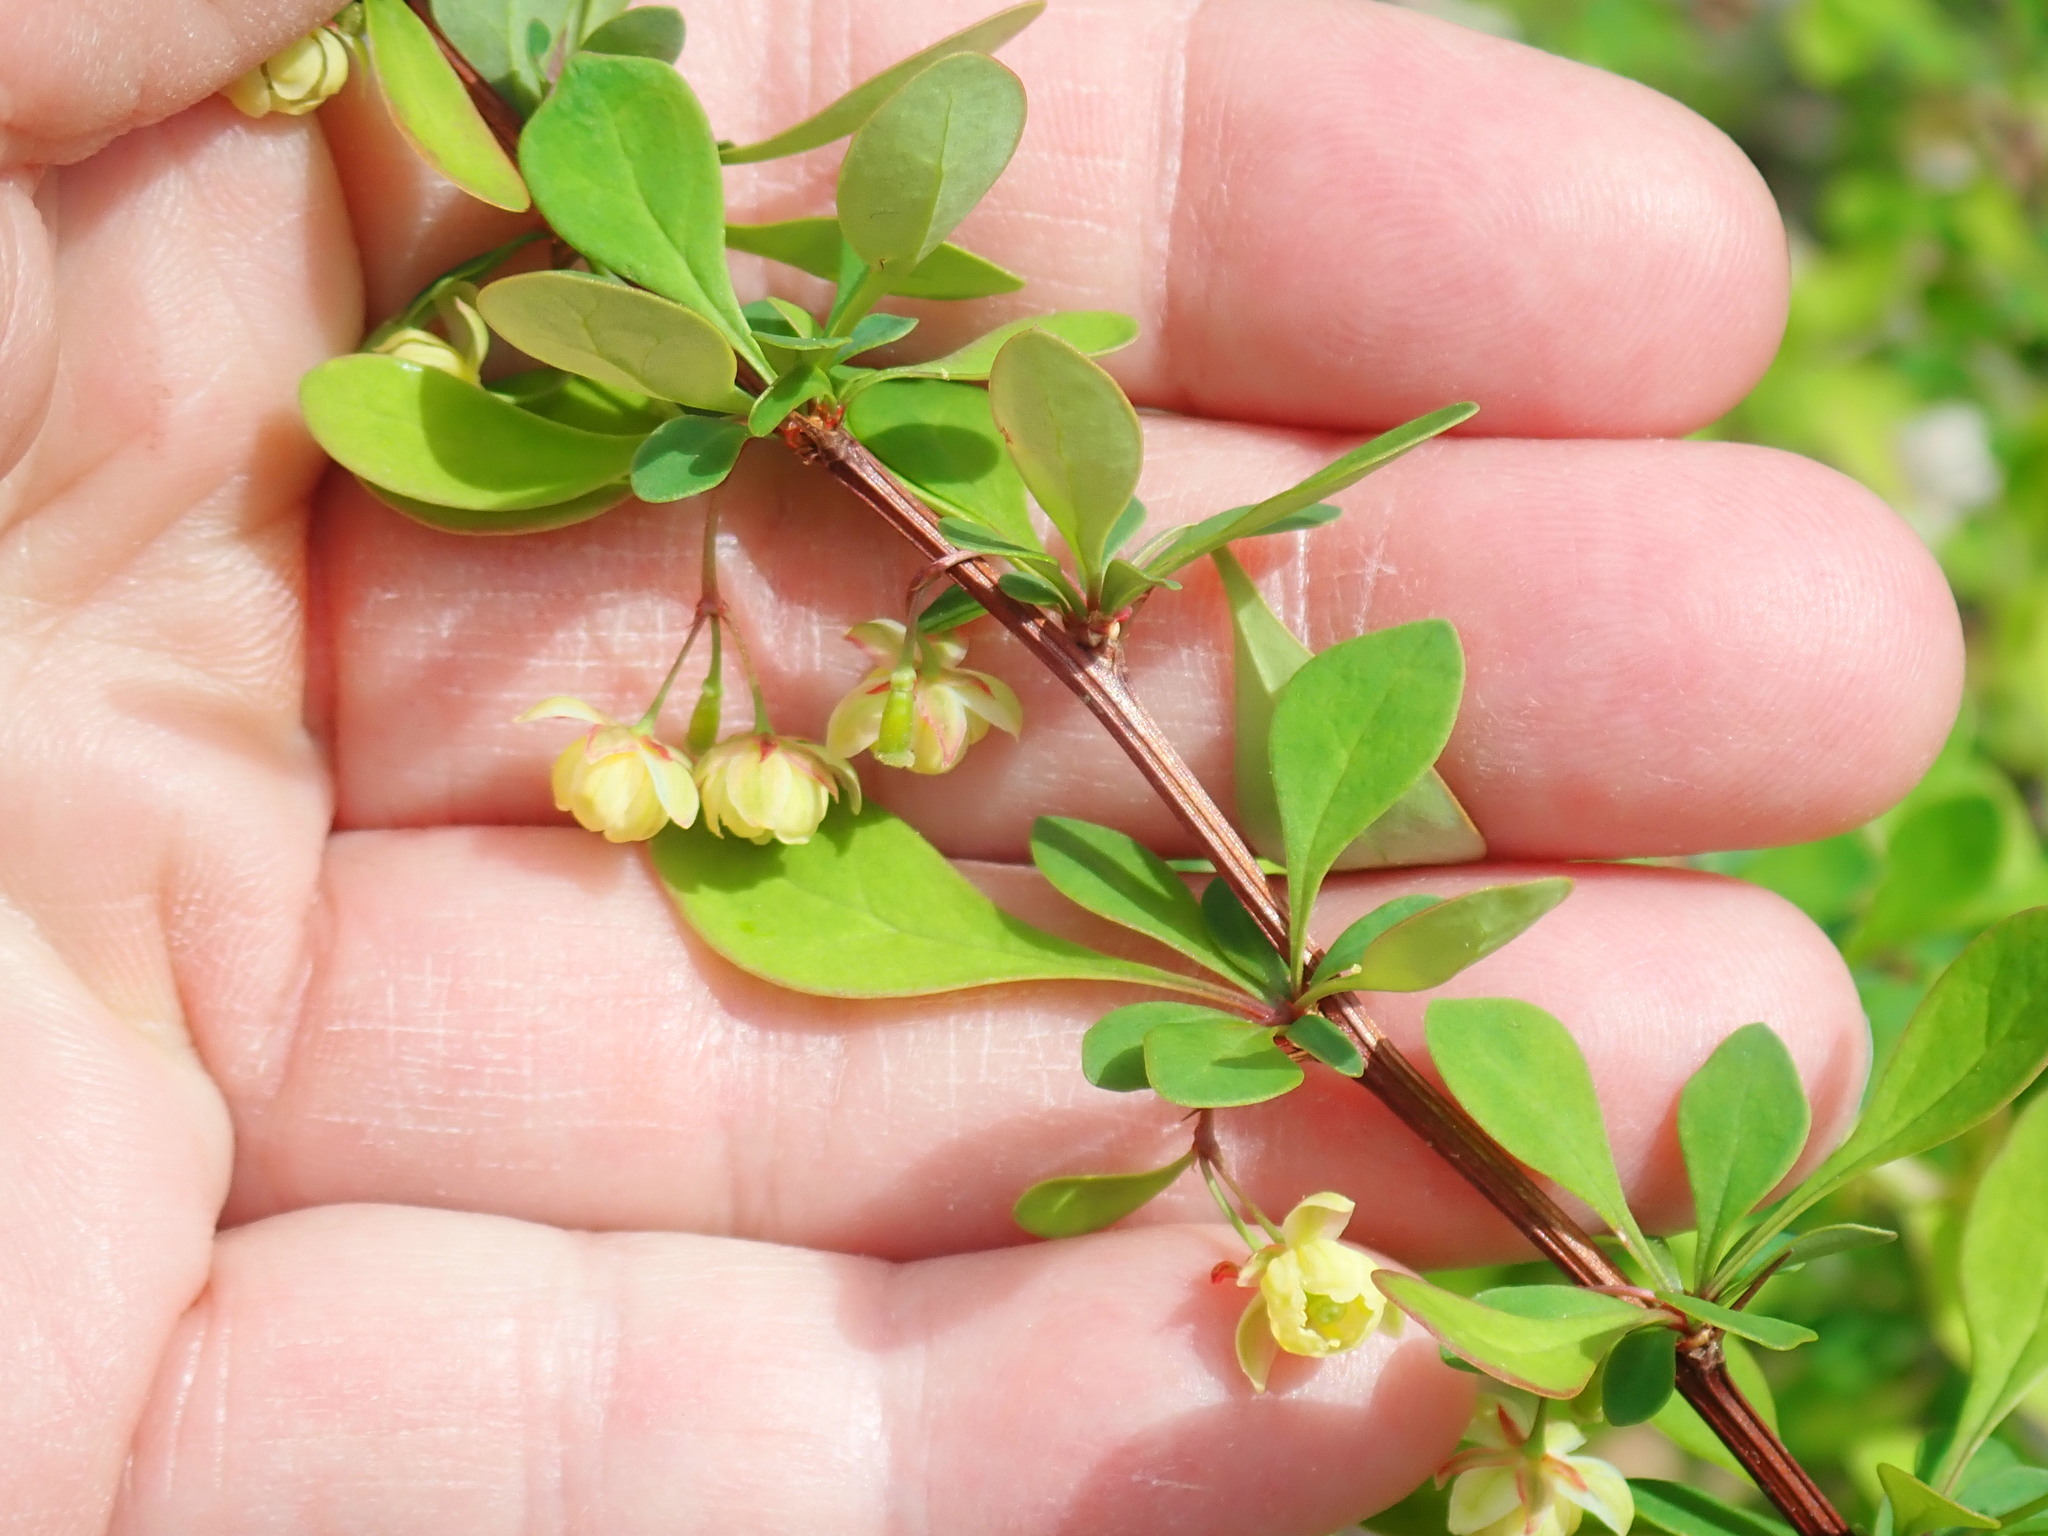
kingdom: Plantae
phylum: Tracheophyta
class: Magnoliopsida
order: Ranunculales
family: Berberidaceae
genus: Berberis
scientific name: Berberis thunbergii
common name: Japanese barberry
